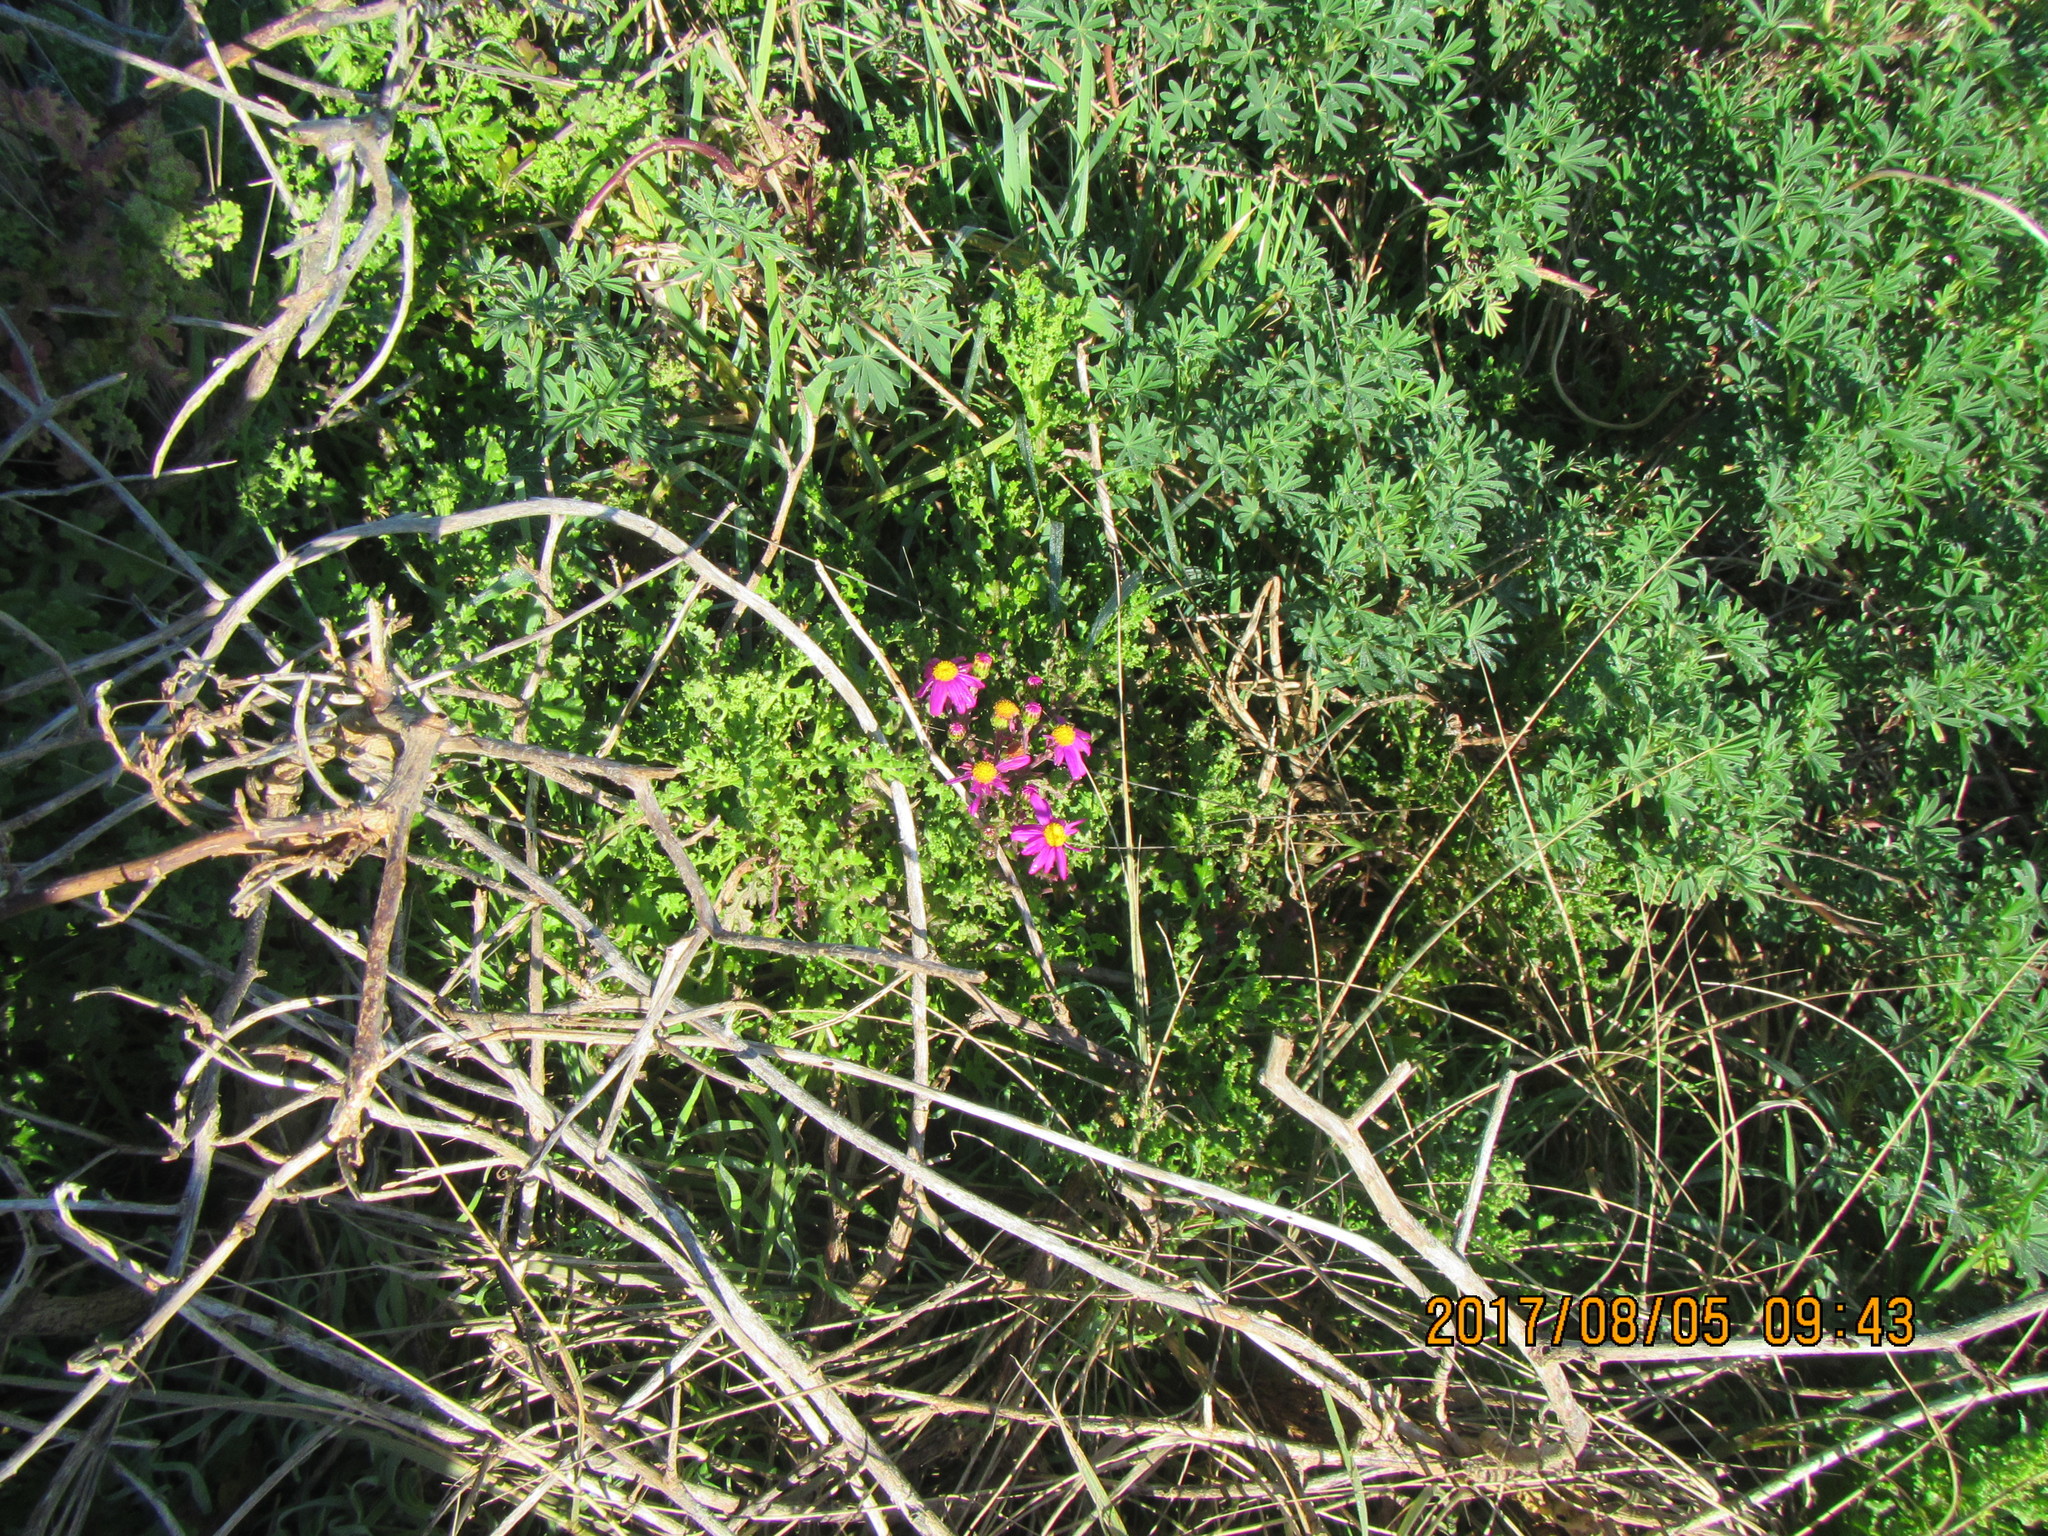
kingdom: Plantae
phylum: Tracheophyta
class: Magnoliopsida
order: Asterales
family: Asteraceae
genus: Senecio
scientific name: Senecio elegans
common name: Purple groundsel
